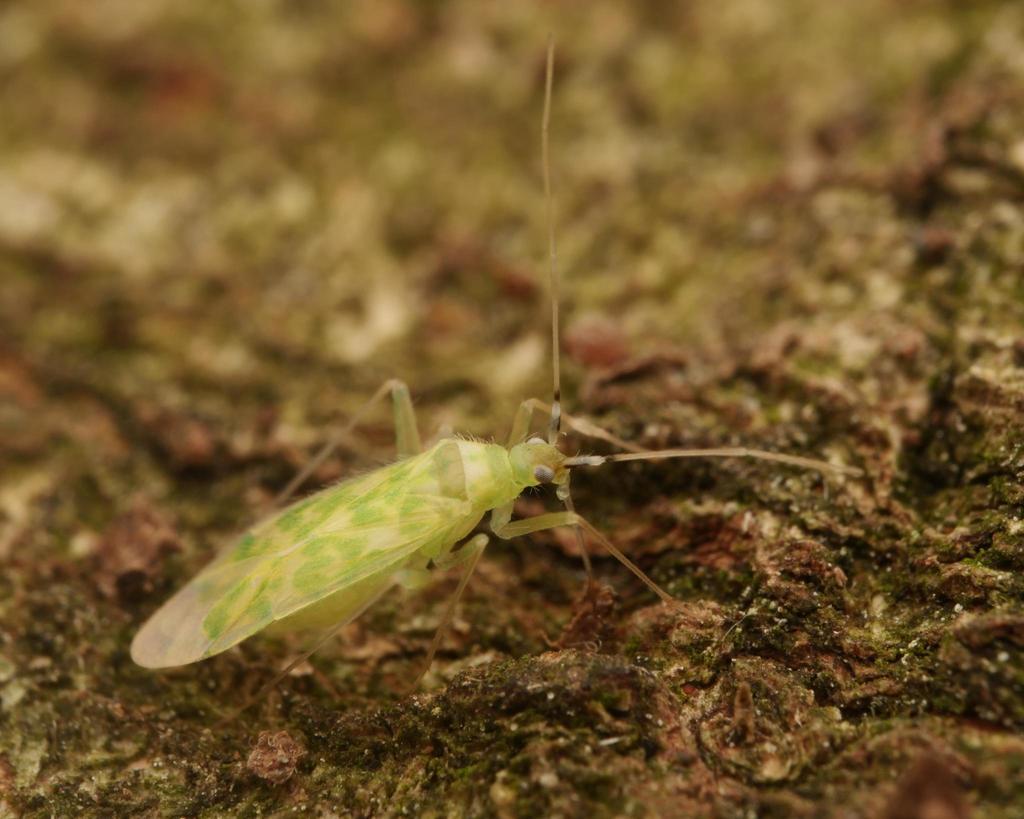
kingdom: Animalia
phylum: Arthropoda
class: Insecta
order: Hemiptera
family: Miridae
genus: Malacocoris
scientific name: Malacocoris chlorizans
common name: Plant bug
